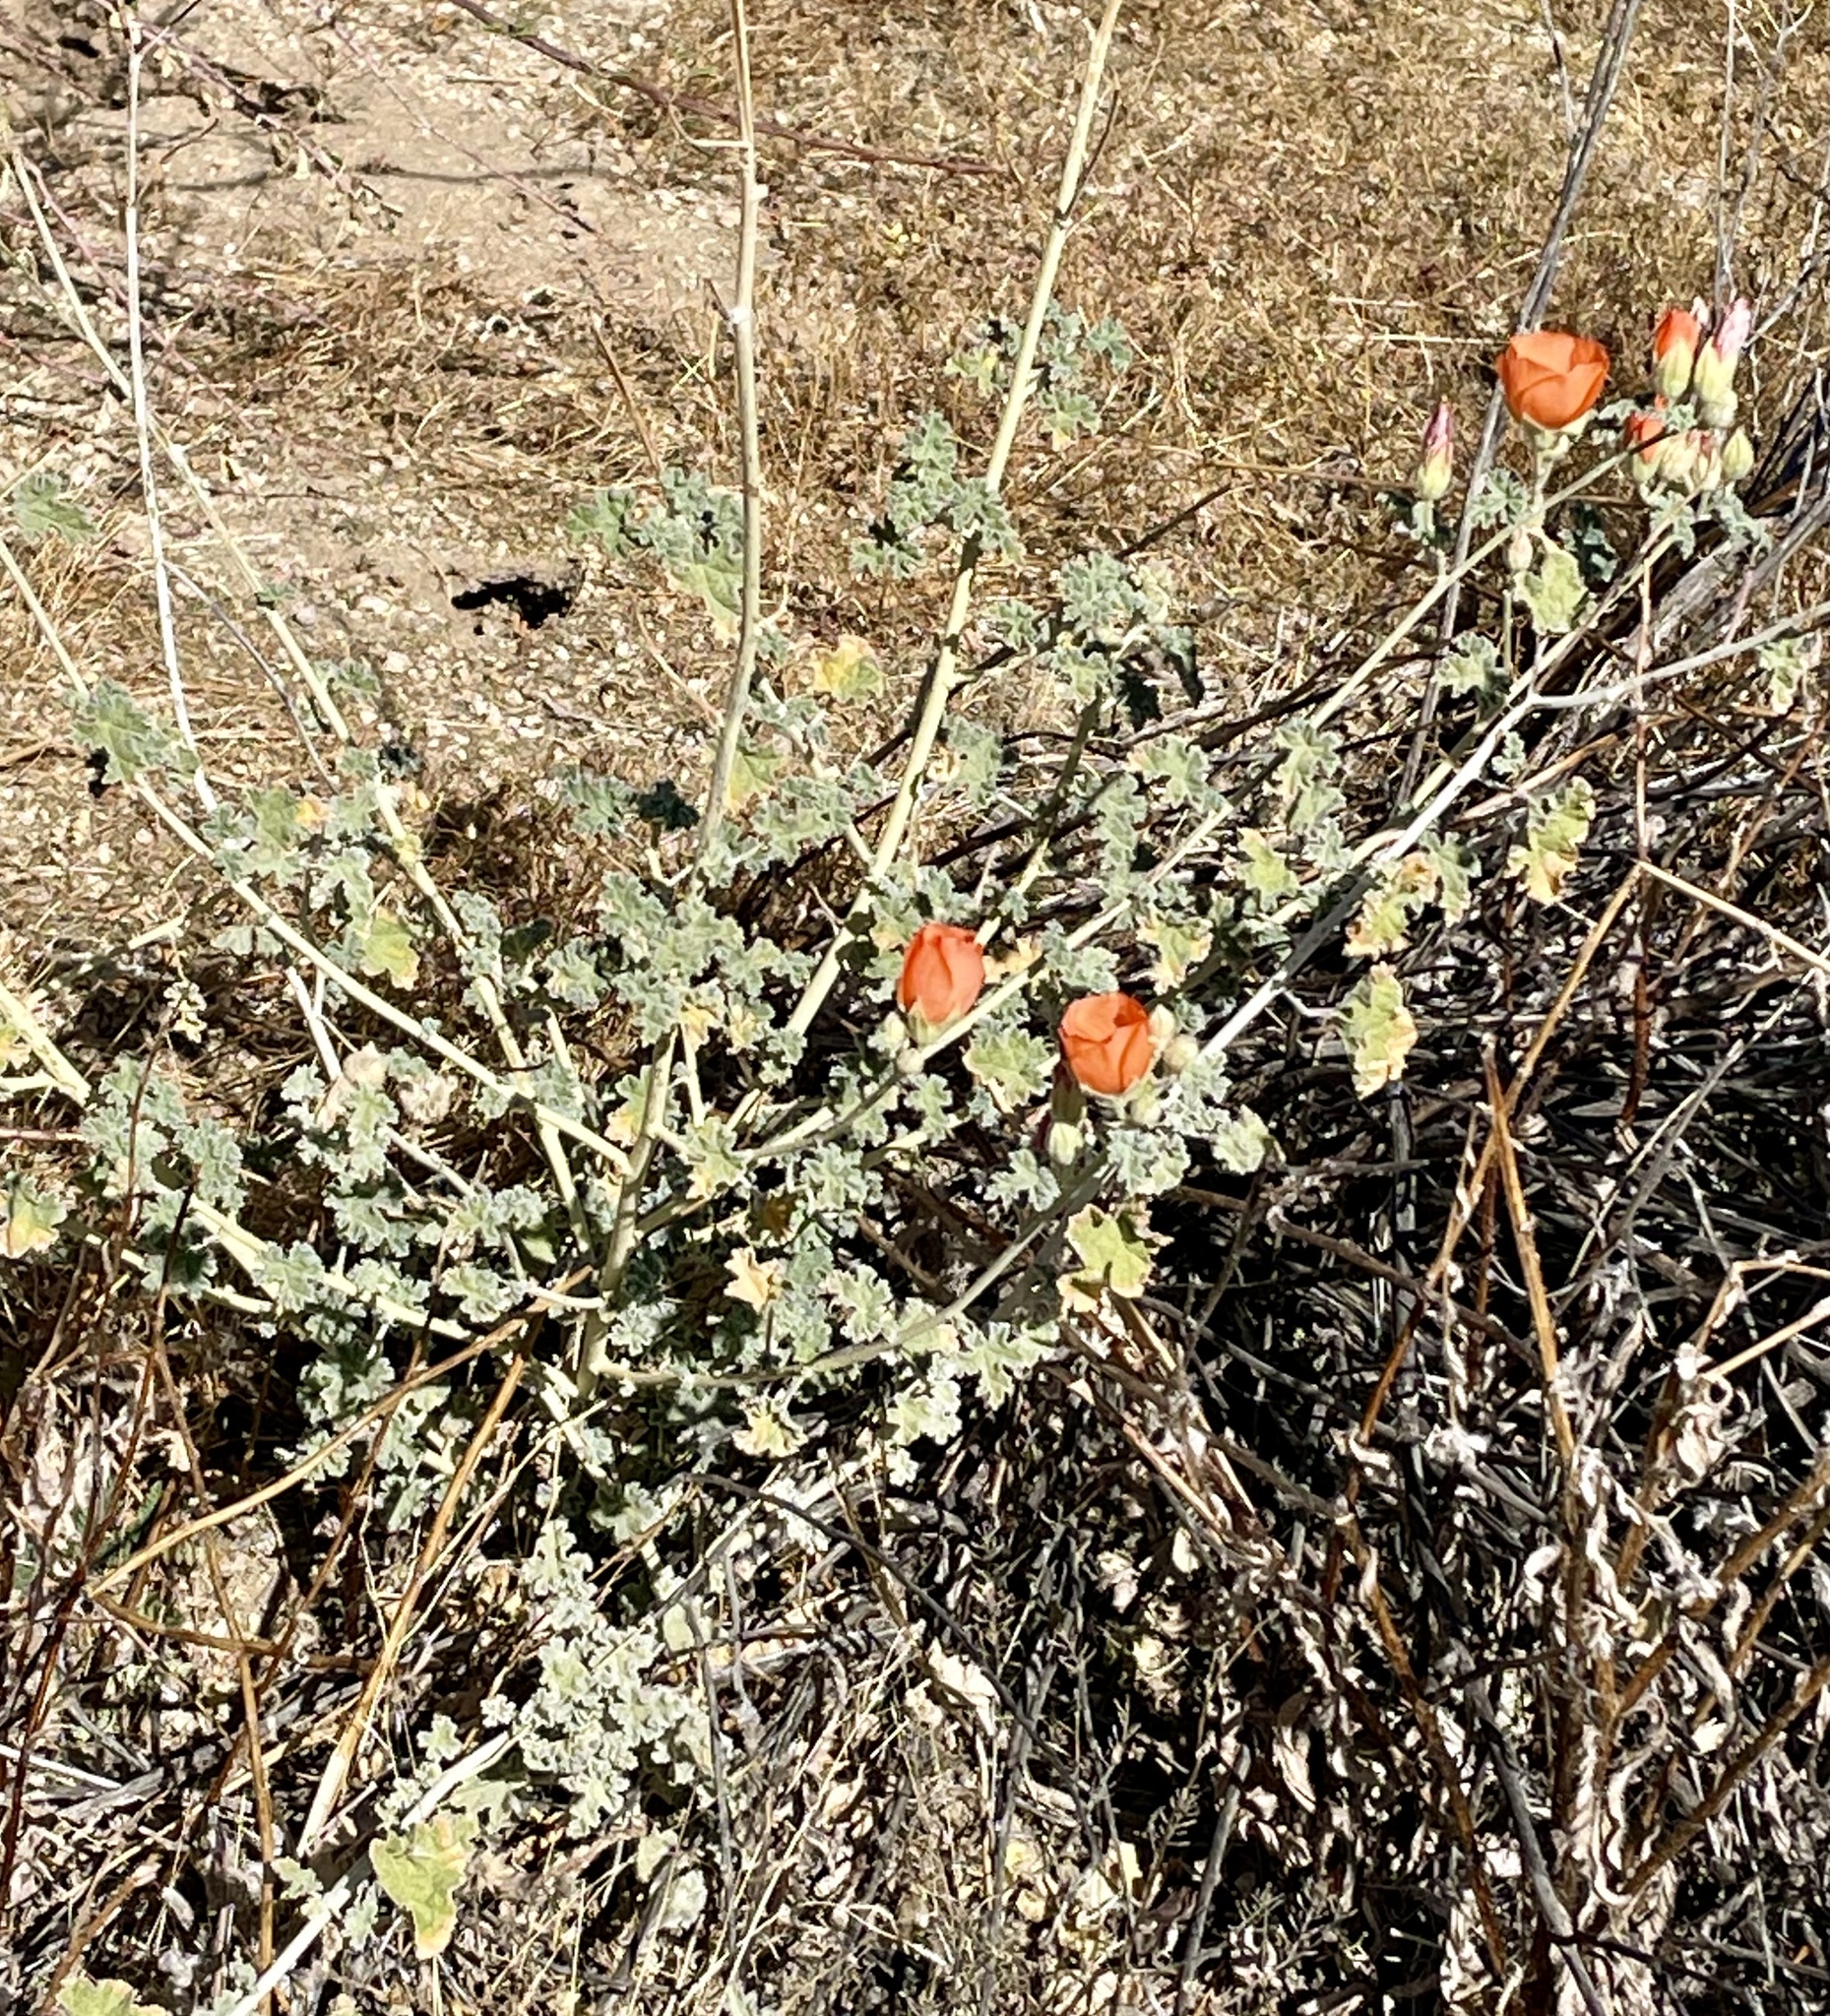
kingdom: Plantae
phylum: Tracheophyta
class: Magnoliopsida
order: Malvales
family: Malvaceae
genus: Sphaeralcea
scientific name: Sphaeralcea ambigua
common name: Apricot globe-mallow
